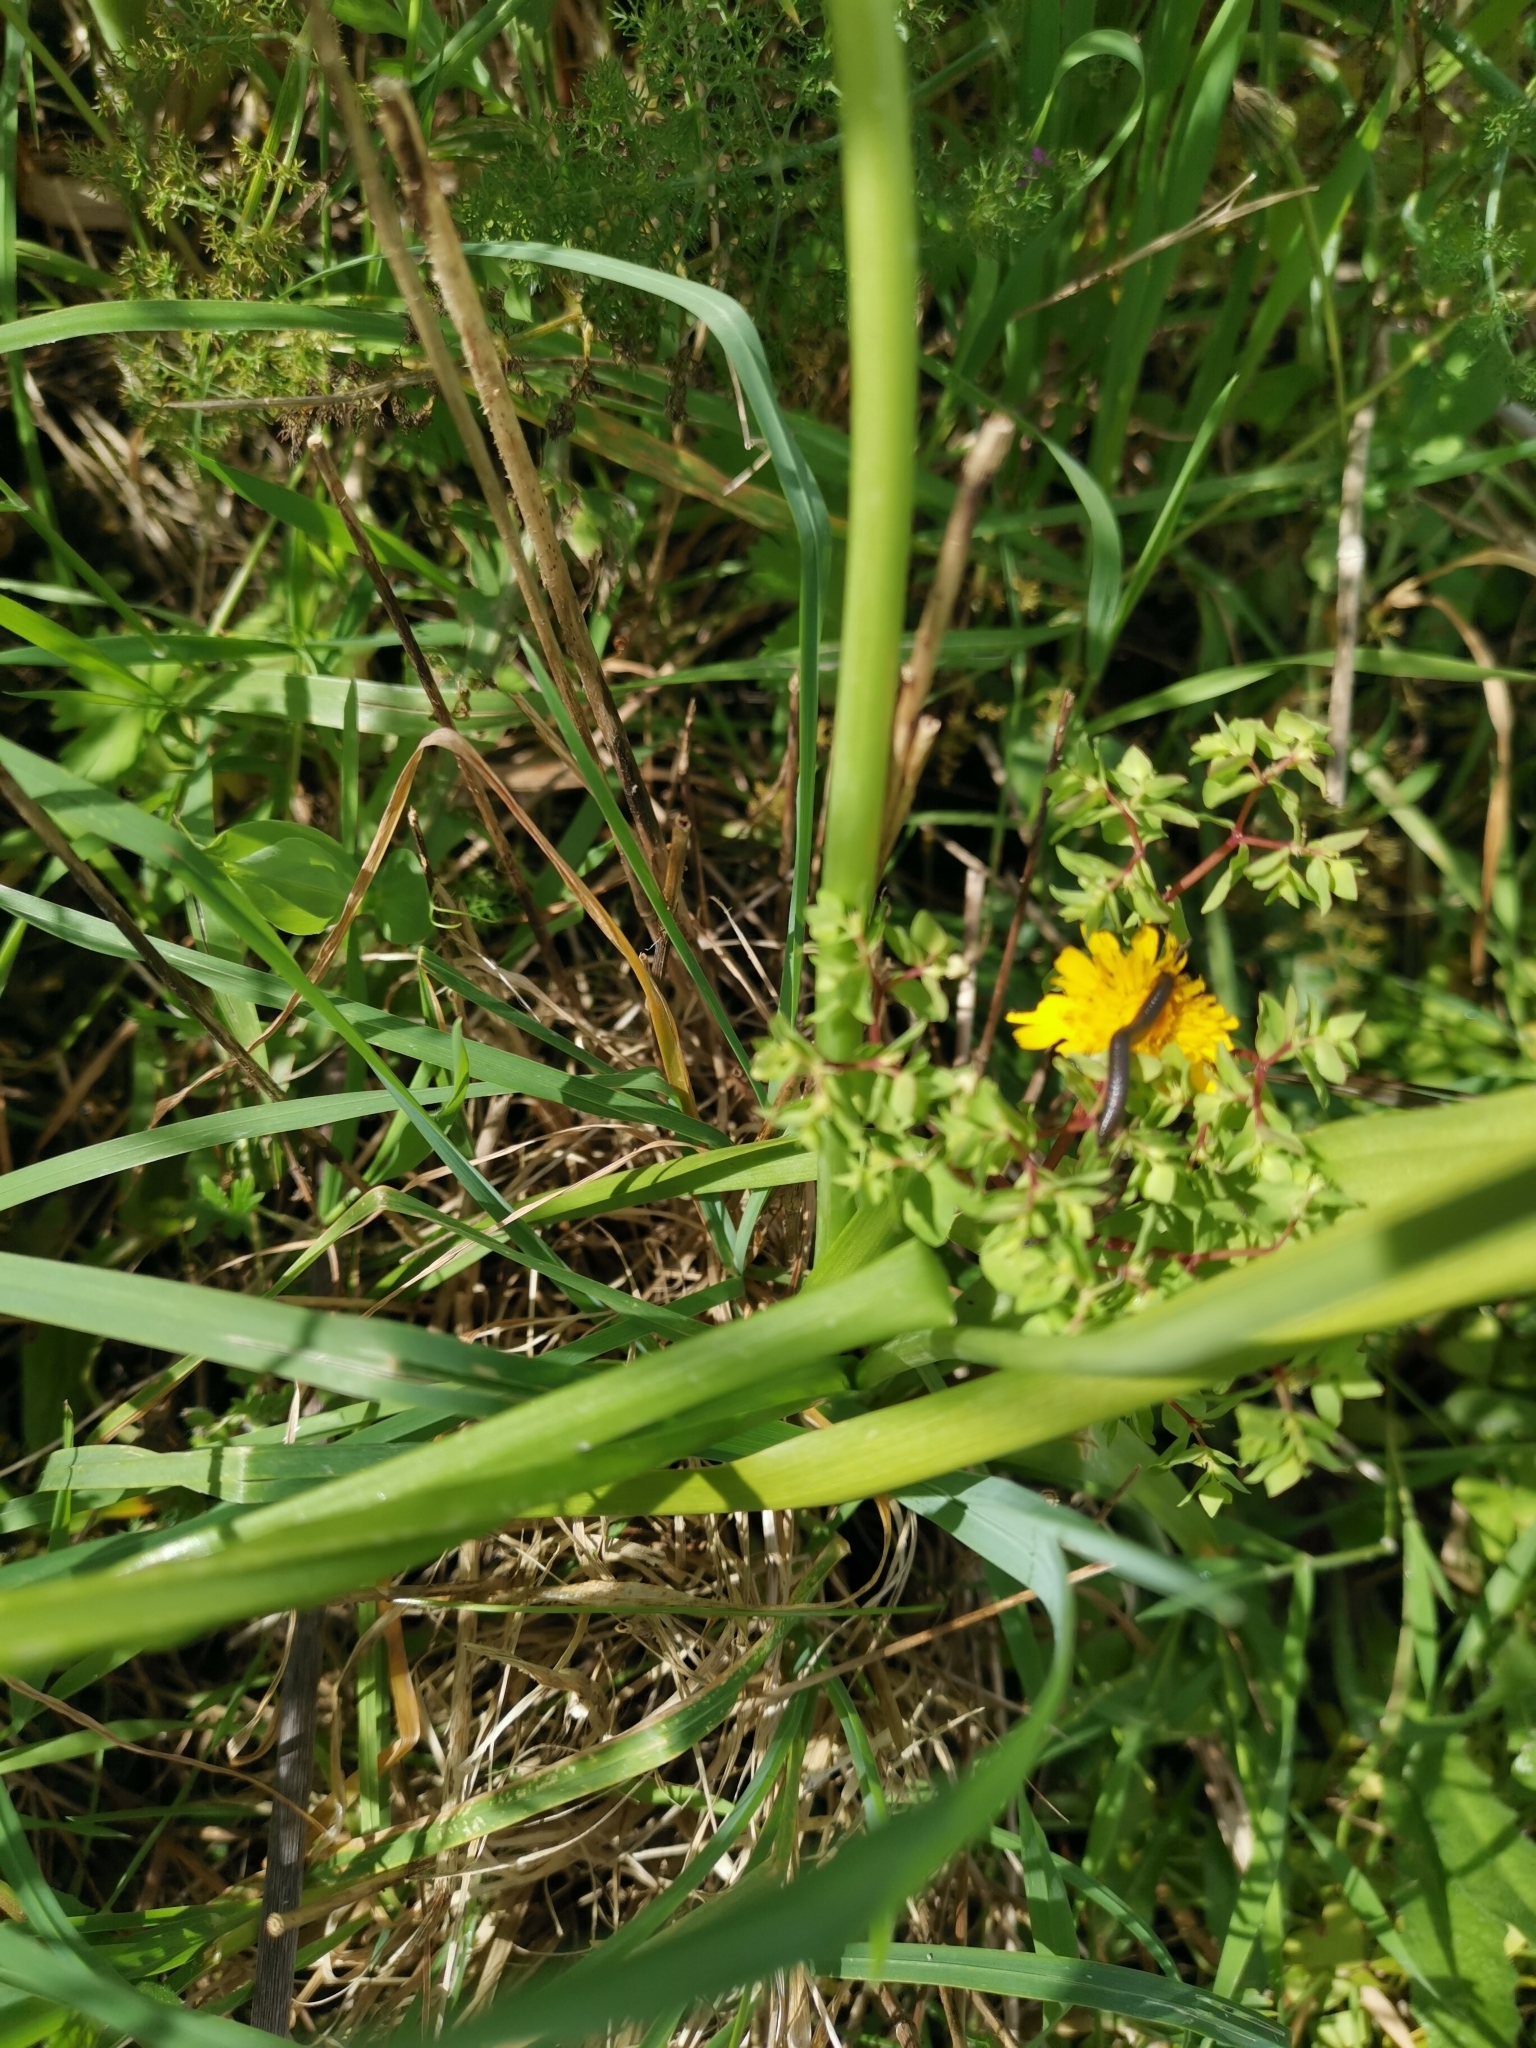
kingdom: Plantae
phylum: Tracheophyta
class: Liliopsida
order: Asparagales
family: Amaryllidaceae
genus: Allium
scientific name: Allium roseum
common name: Rosy garlic
